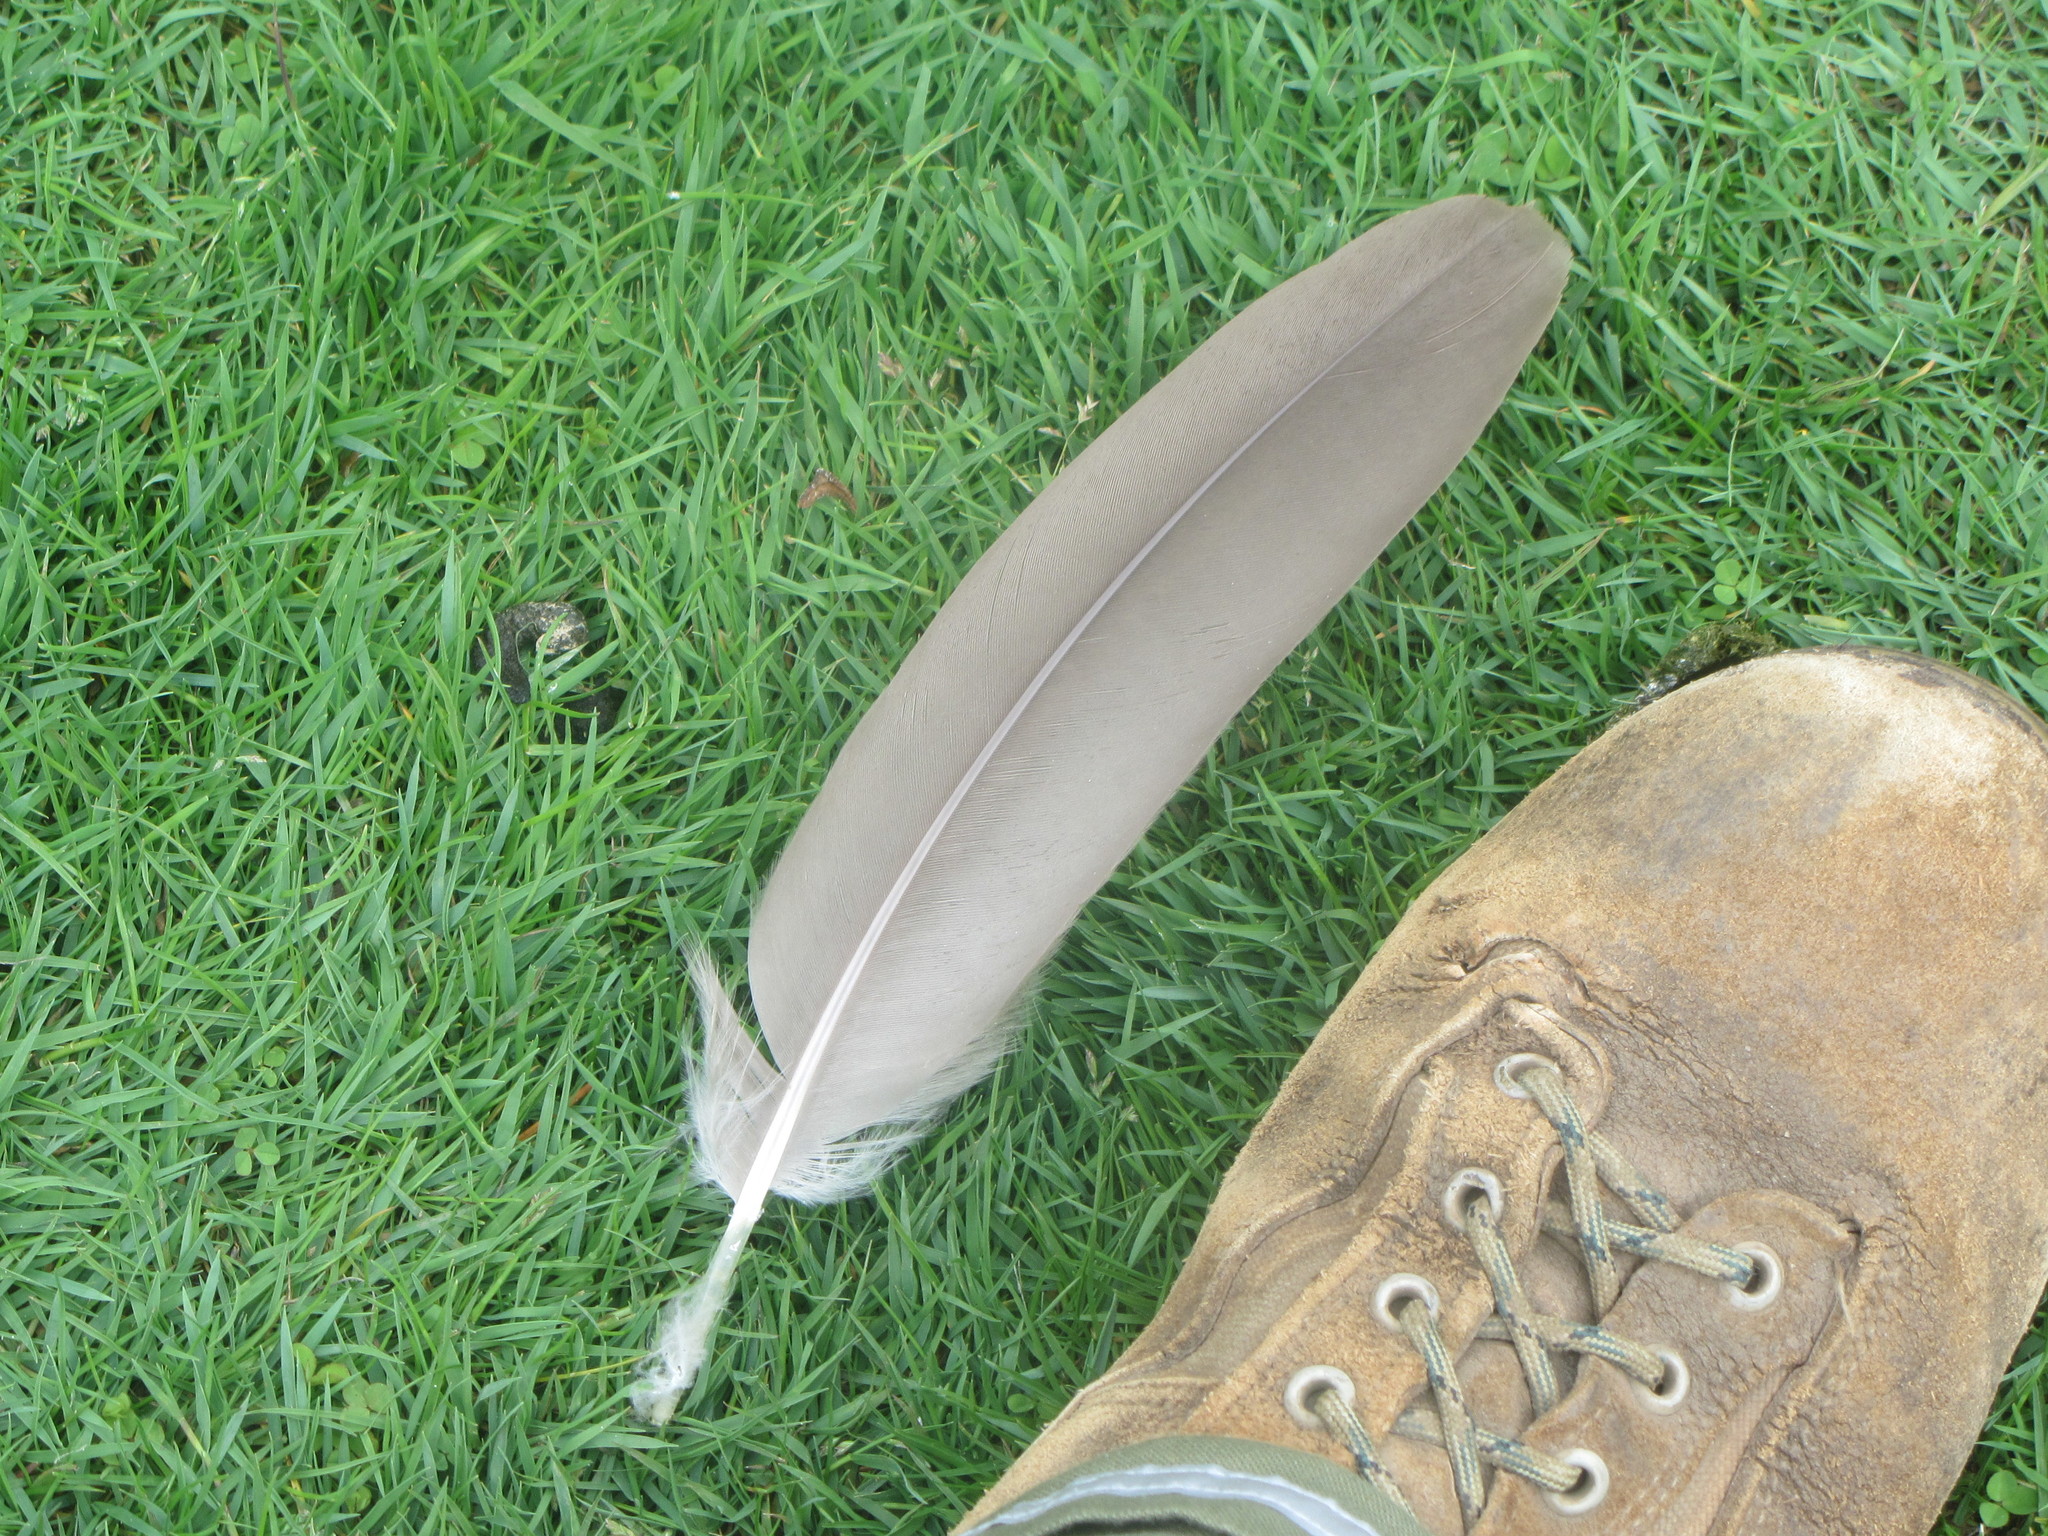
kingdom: Animalia
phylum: Chordata
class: Aves
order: Anseriformes
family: Anatidae
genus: Branta
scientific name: Branta canadensis
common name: Canada goose
